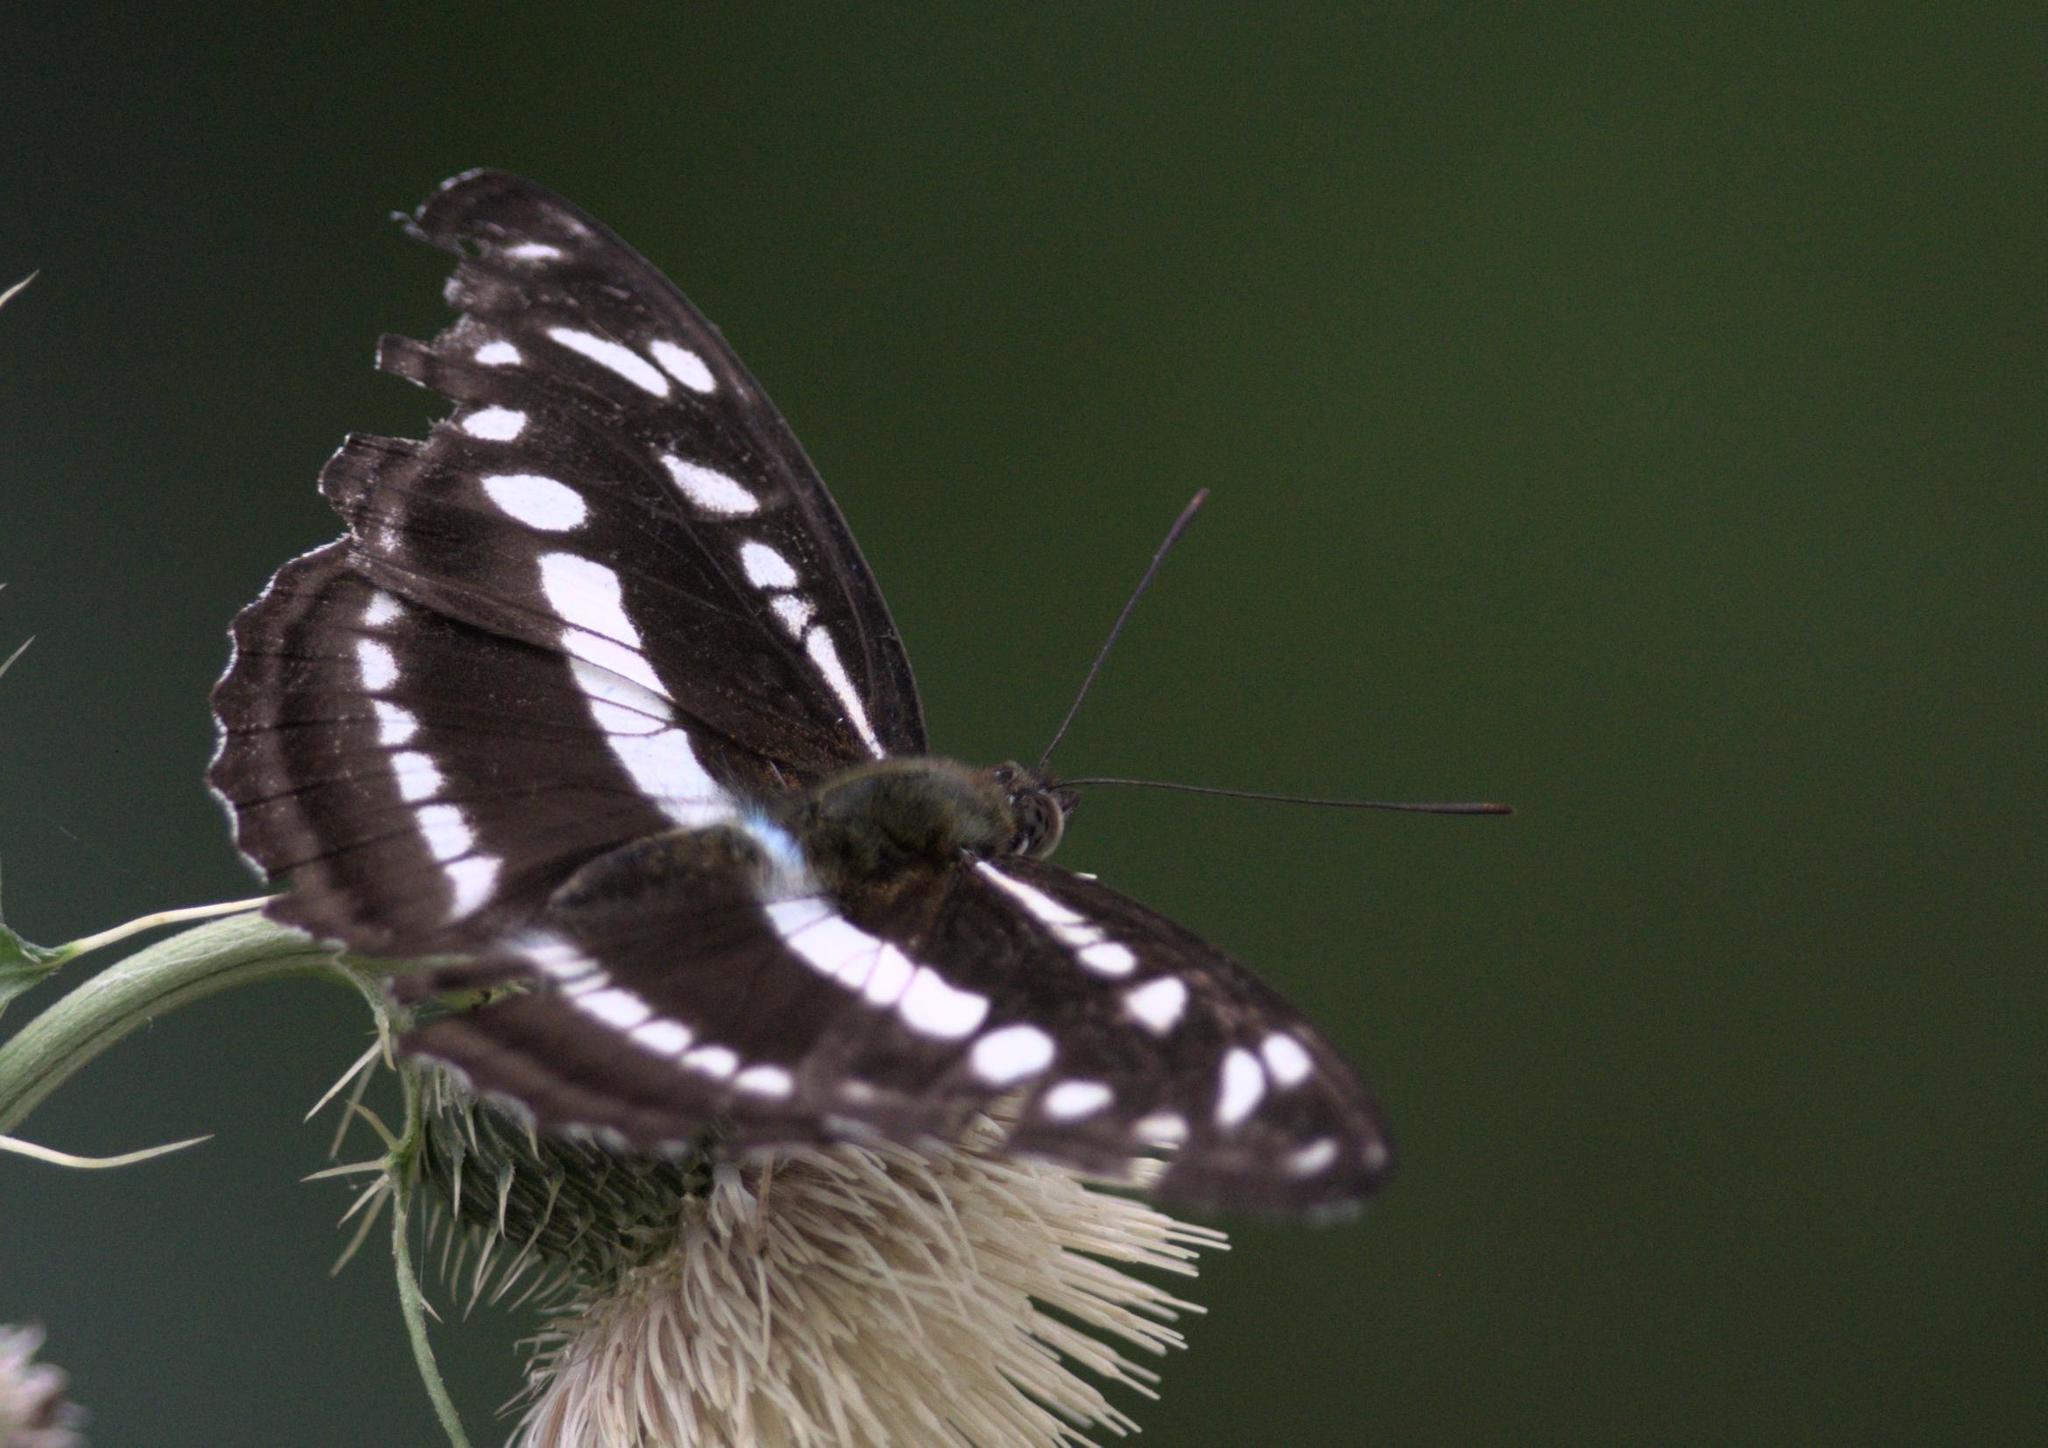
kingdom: Animalia
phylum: Arthropoda
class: Insecta
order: Lepidoptera
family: Nymphalidae
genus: Parathyma
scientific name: Parathyma opalina
